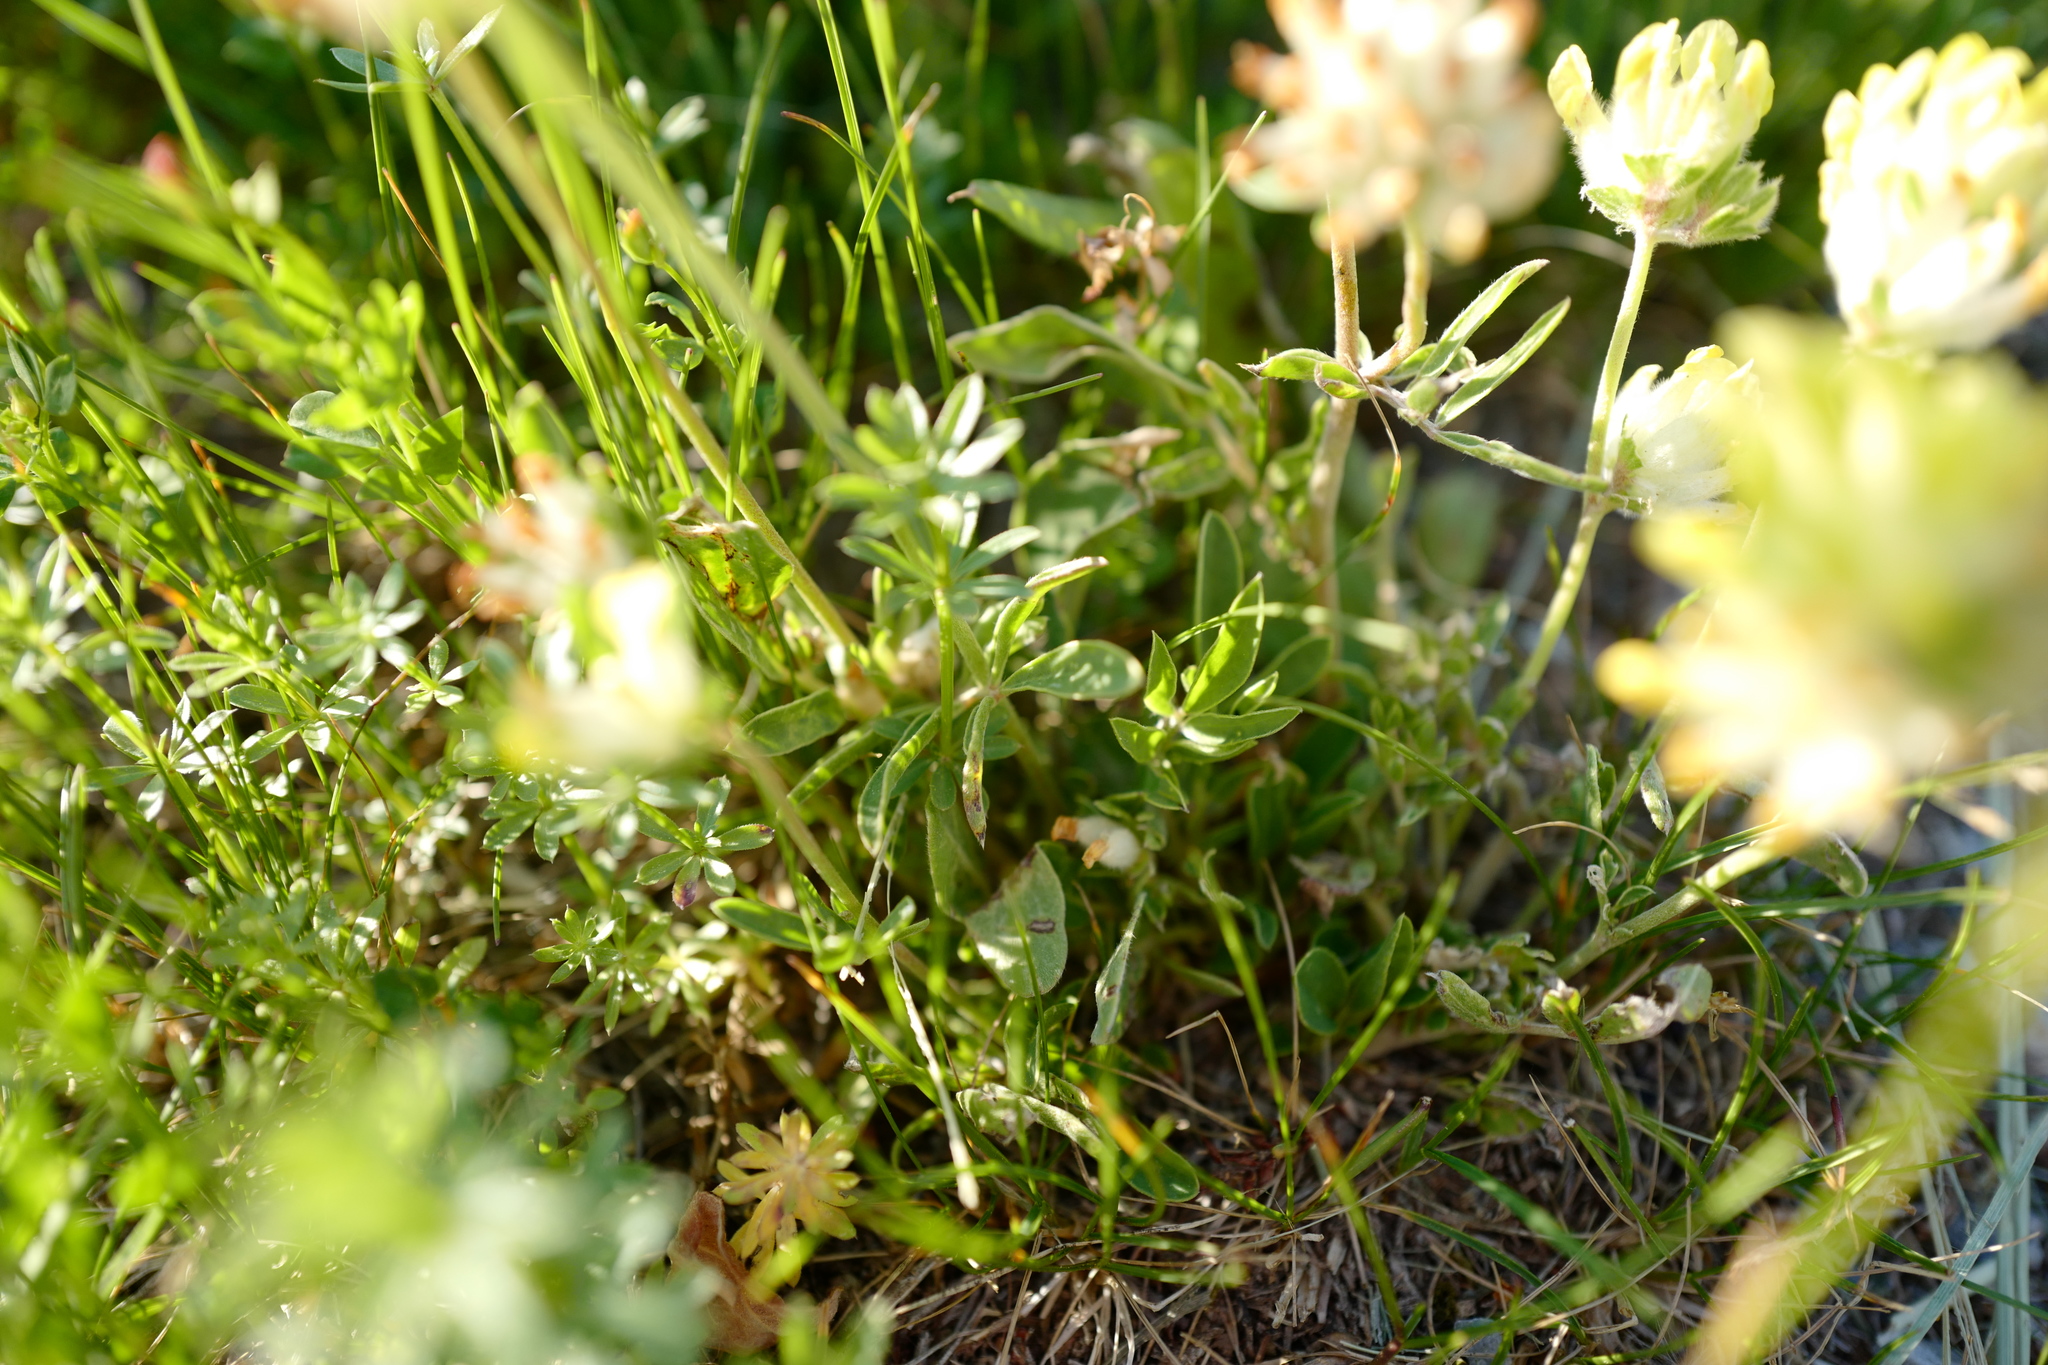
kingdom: Plantae
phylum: Tracheophyta
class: Magnoliopsida
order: Fabales
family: Fabaceae
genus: Anthyllis
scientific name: Anthyllis vulneraria
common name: Kidney vetch
